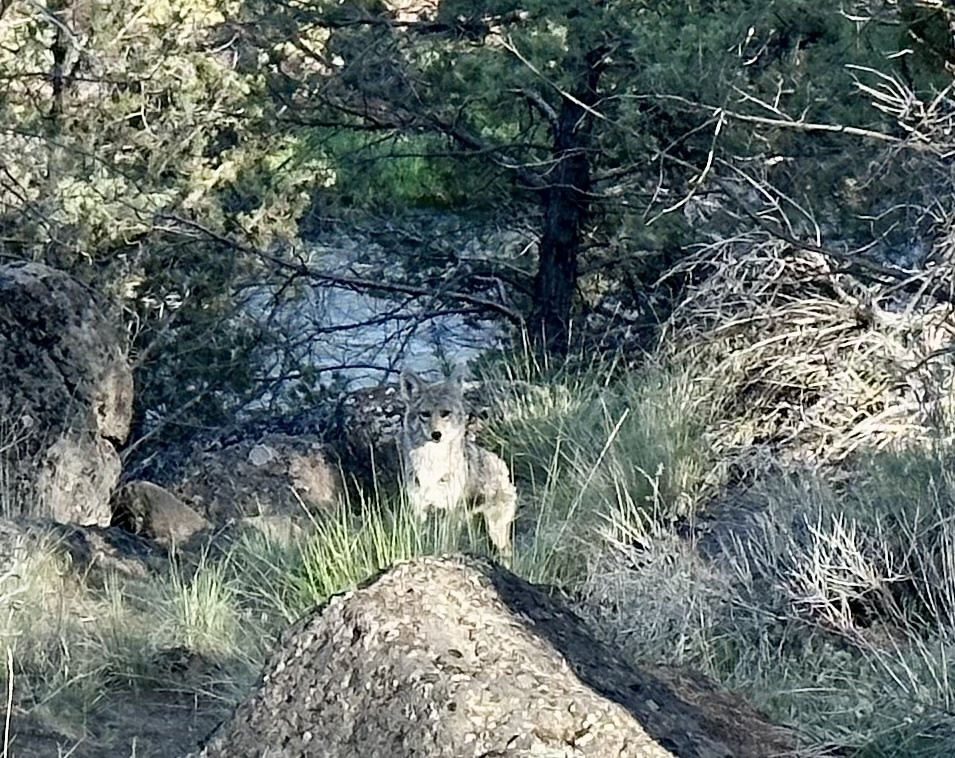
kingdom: Animalia
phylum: Chordata
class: Mammalia
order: Carnivora
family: Canidae
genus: Canis
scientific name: Canis latrans
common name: Coyote
